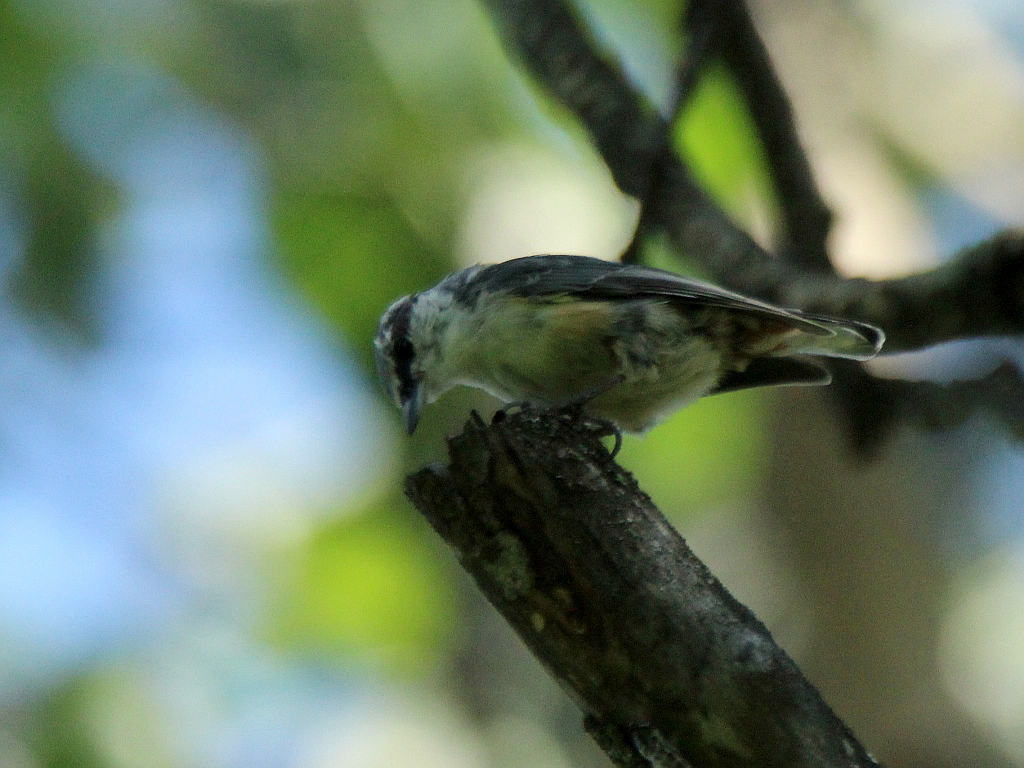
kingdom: Animalia
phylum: Chordata
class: Aves
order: Passeriformes
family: Sittidae
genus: Sitta
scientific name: Sitta europaea
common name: Eurasian nuthatch
